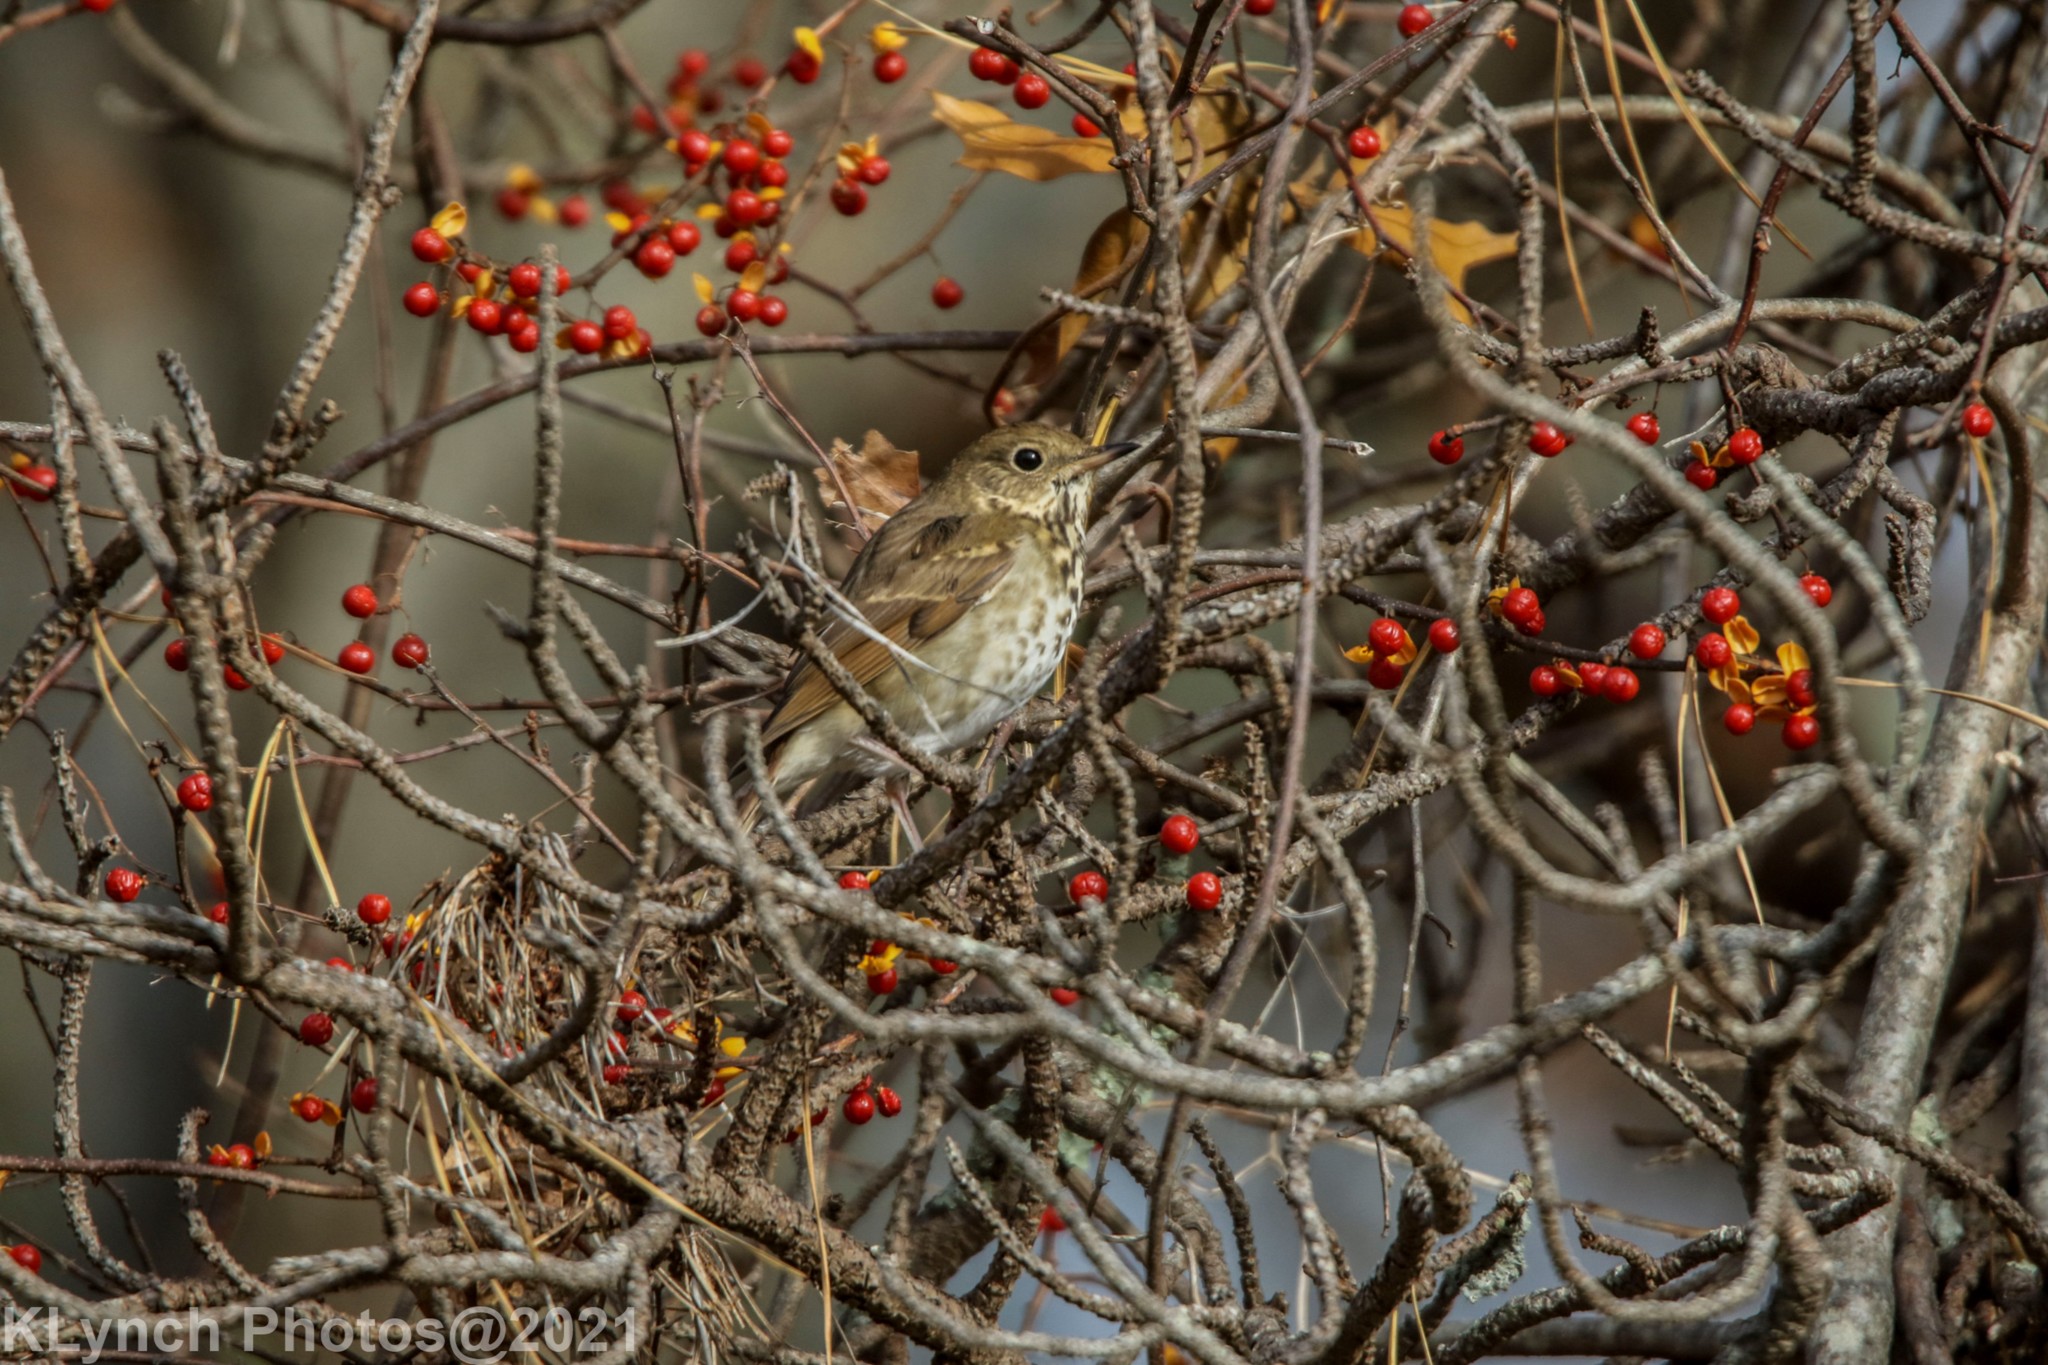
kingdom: Animalia
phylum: Chordata
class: Aves
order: Passeriformes
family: Turdidae
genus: Catharus
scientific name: Catharus guttatus
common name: Hermit thrush
